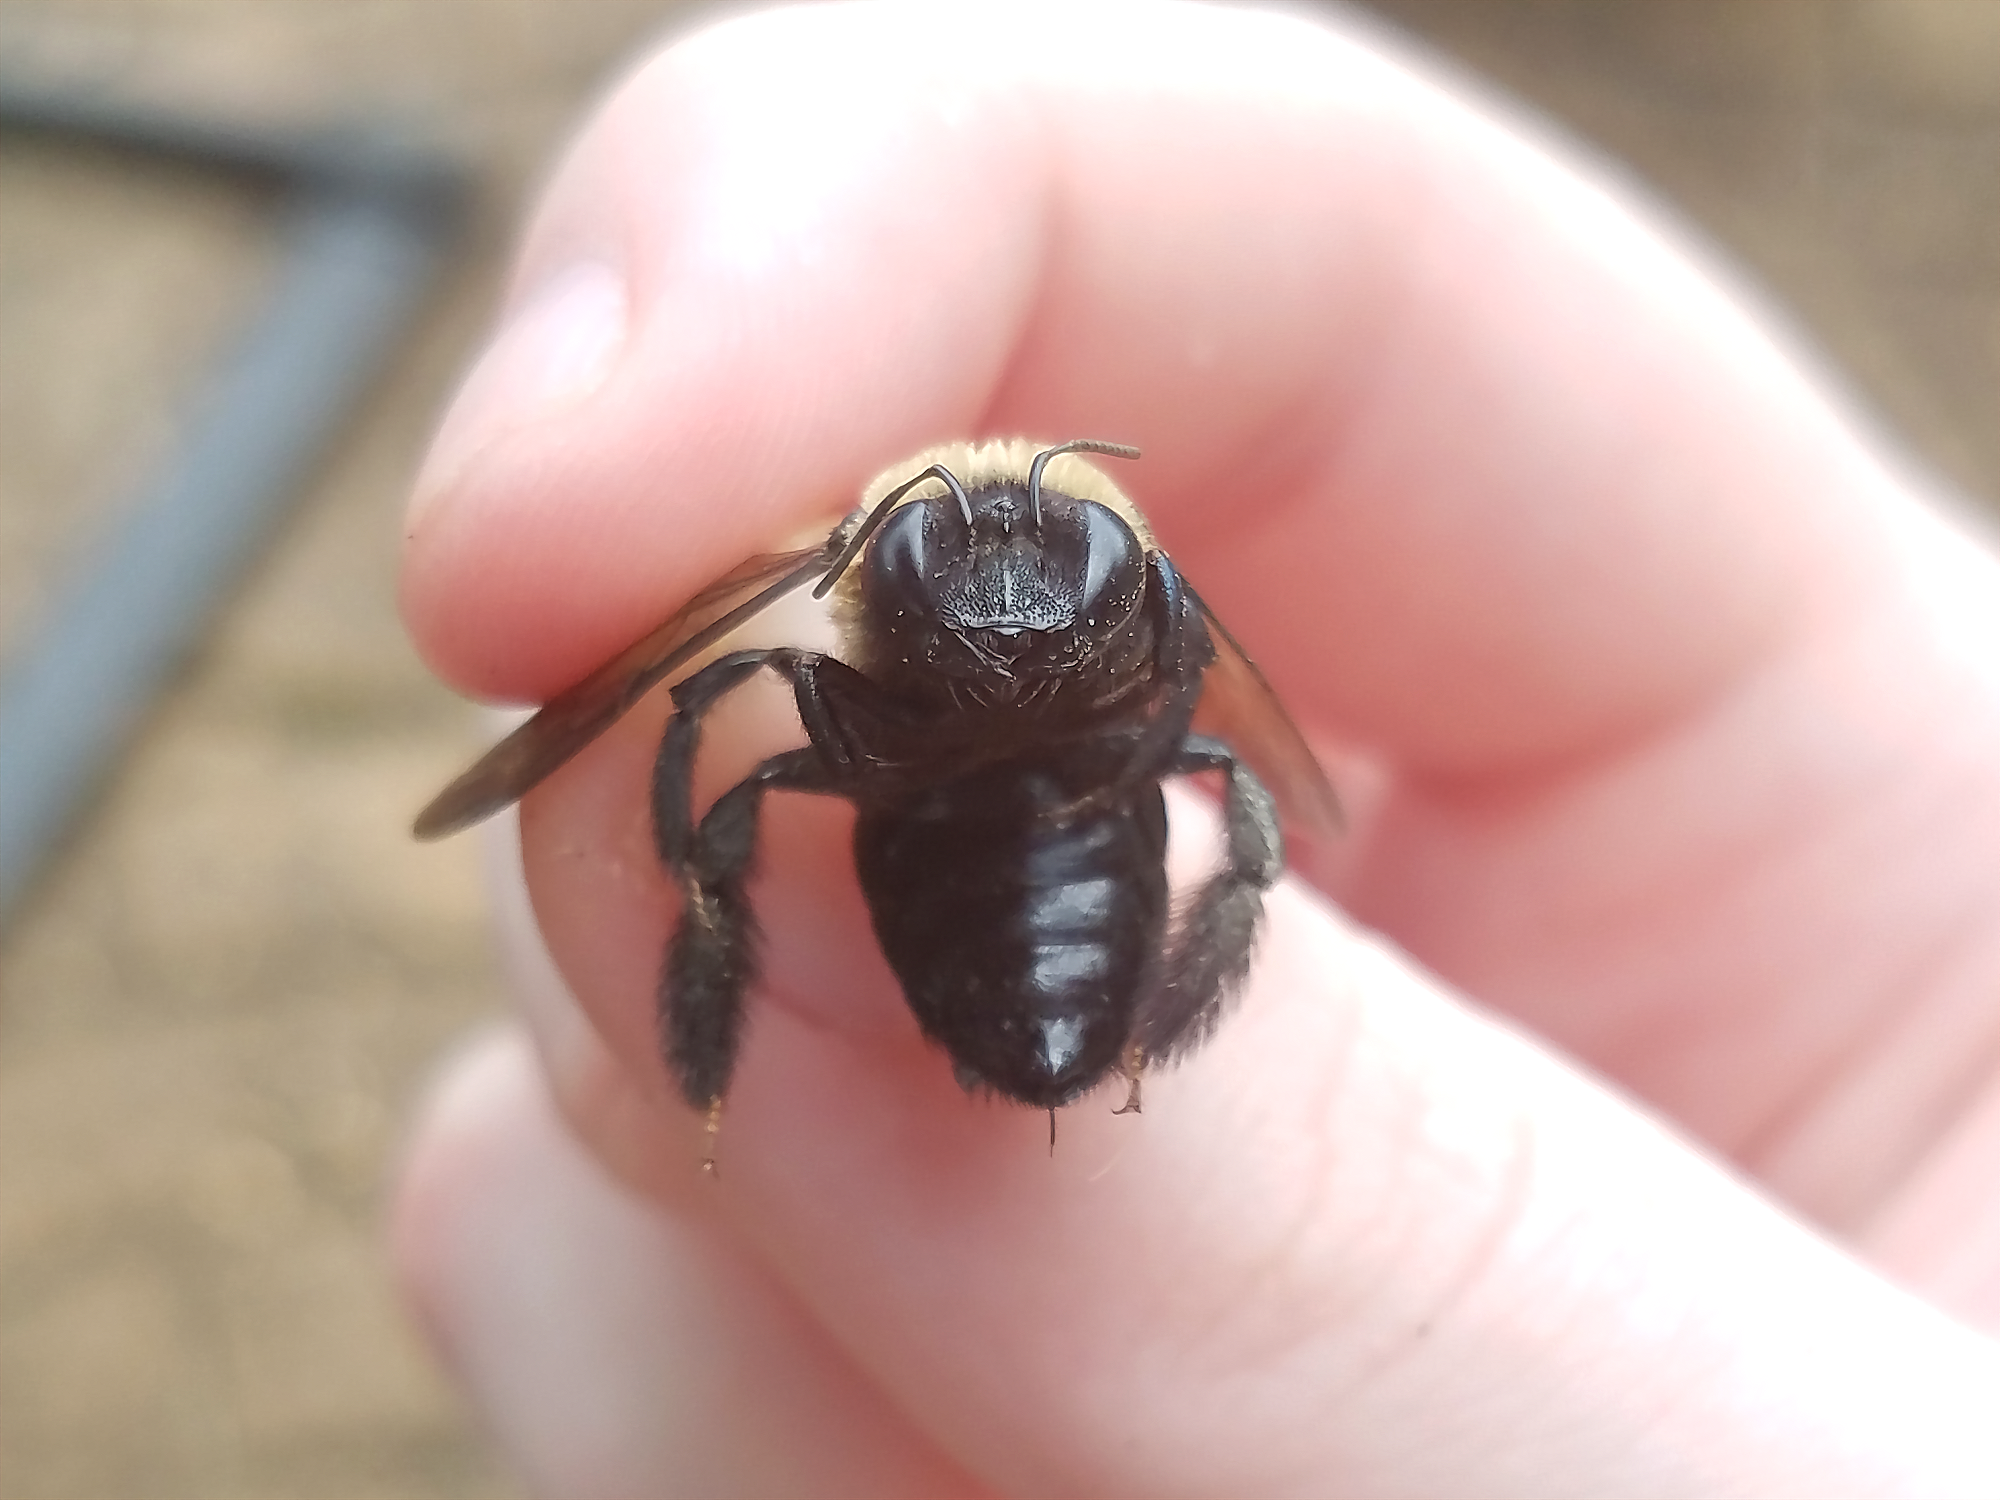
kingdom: Animalia
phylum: Arthropoda
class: Insecta
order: Hymenoptera
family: Apidae
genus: Xylocopa
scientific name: Xylocopa virginica
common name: Carpenter bee
